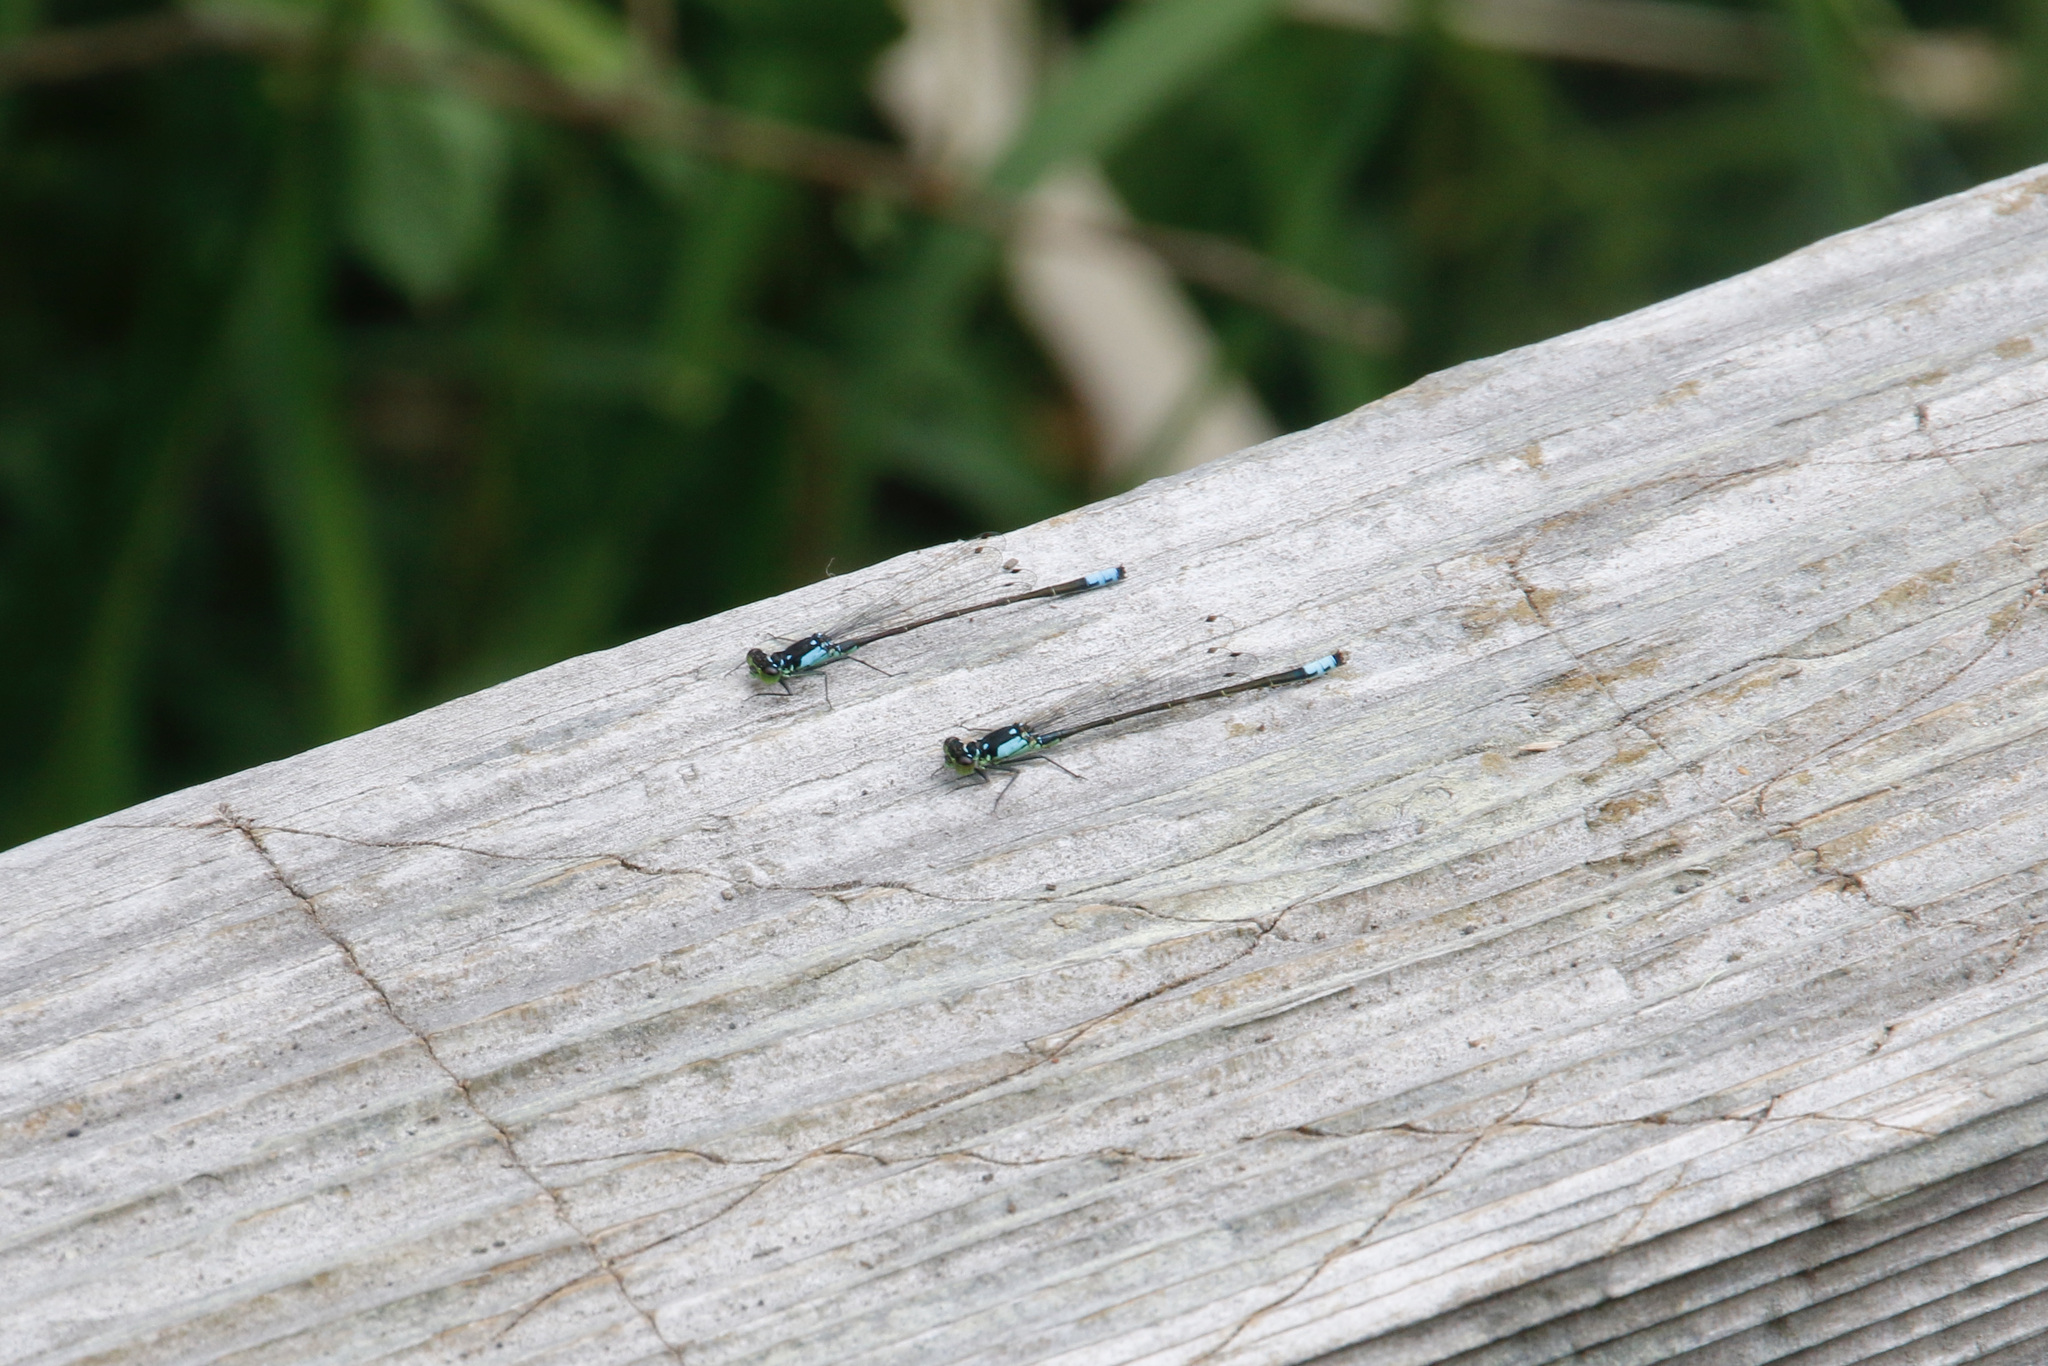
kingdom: Animalia
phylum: Arthropoda
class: Insecta
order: Odonata
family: Coenagrionidae
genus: Ischnura
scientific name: Ischnura cervula
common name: Pacific forktail
